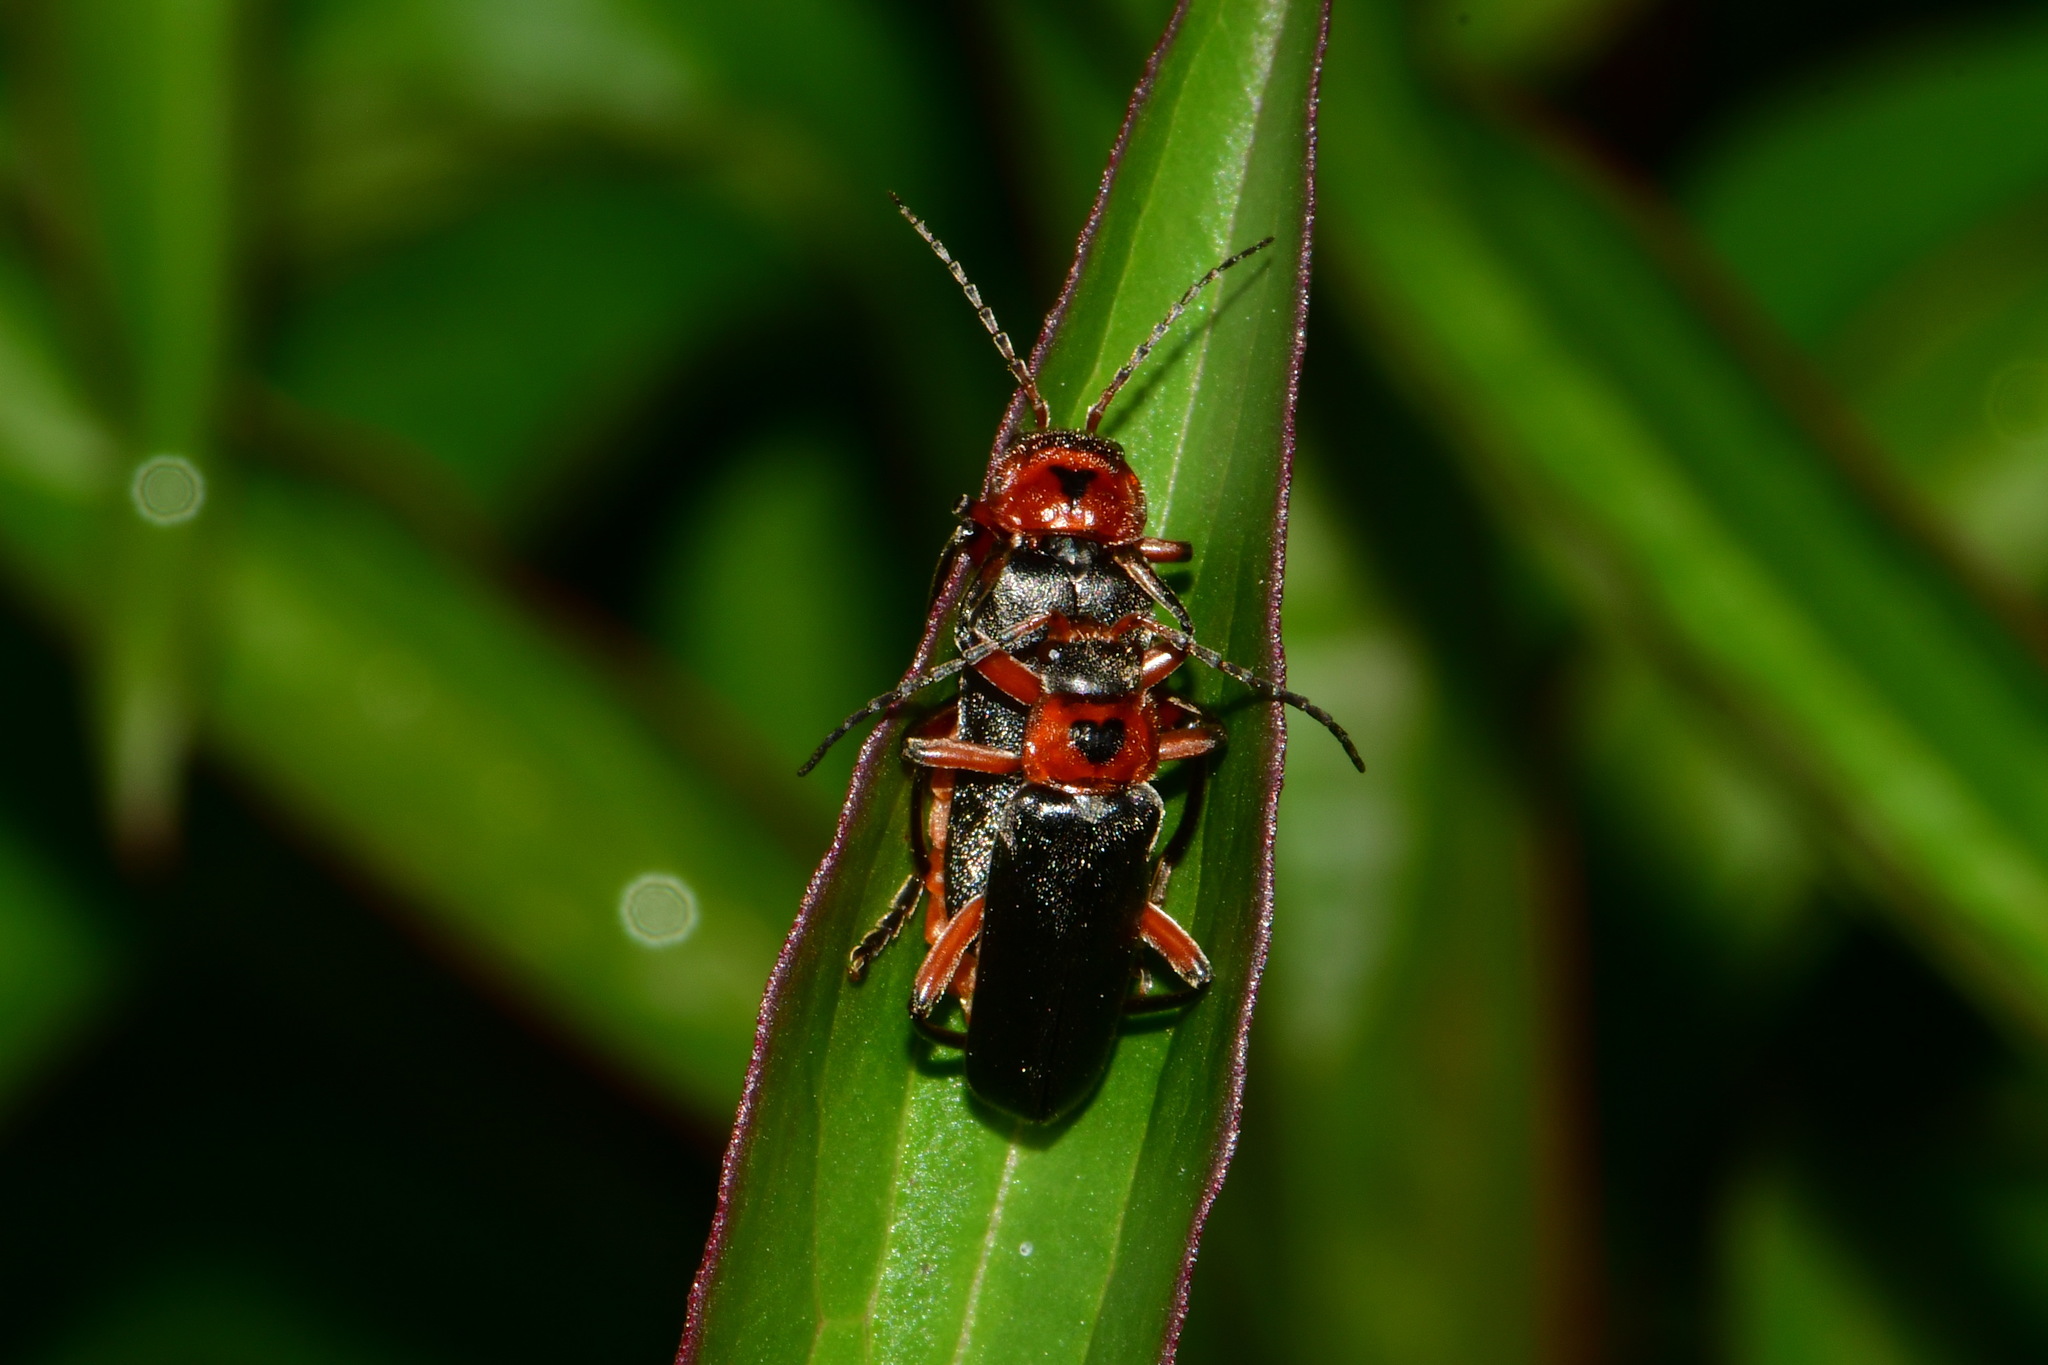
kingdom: Animalia
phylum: Arthropoda
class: Insecta
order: Coleoptera
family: Cantharidae
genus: Cantharis
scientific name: Cantharis rustica
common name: Soldier beetle
